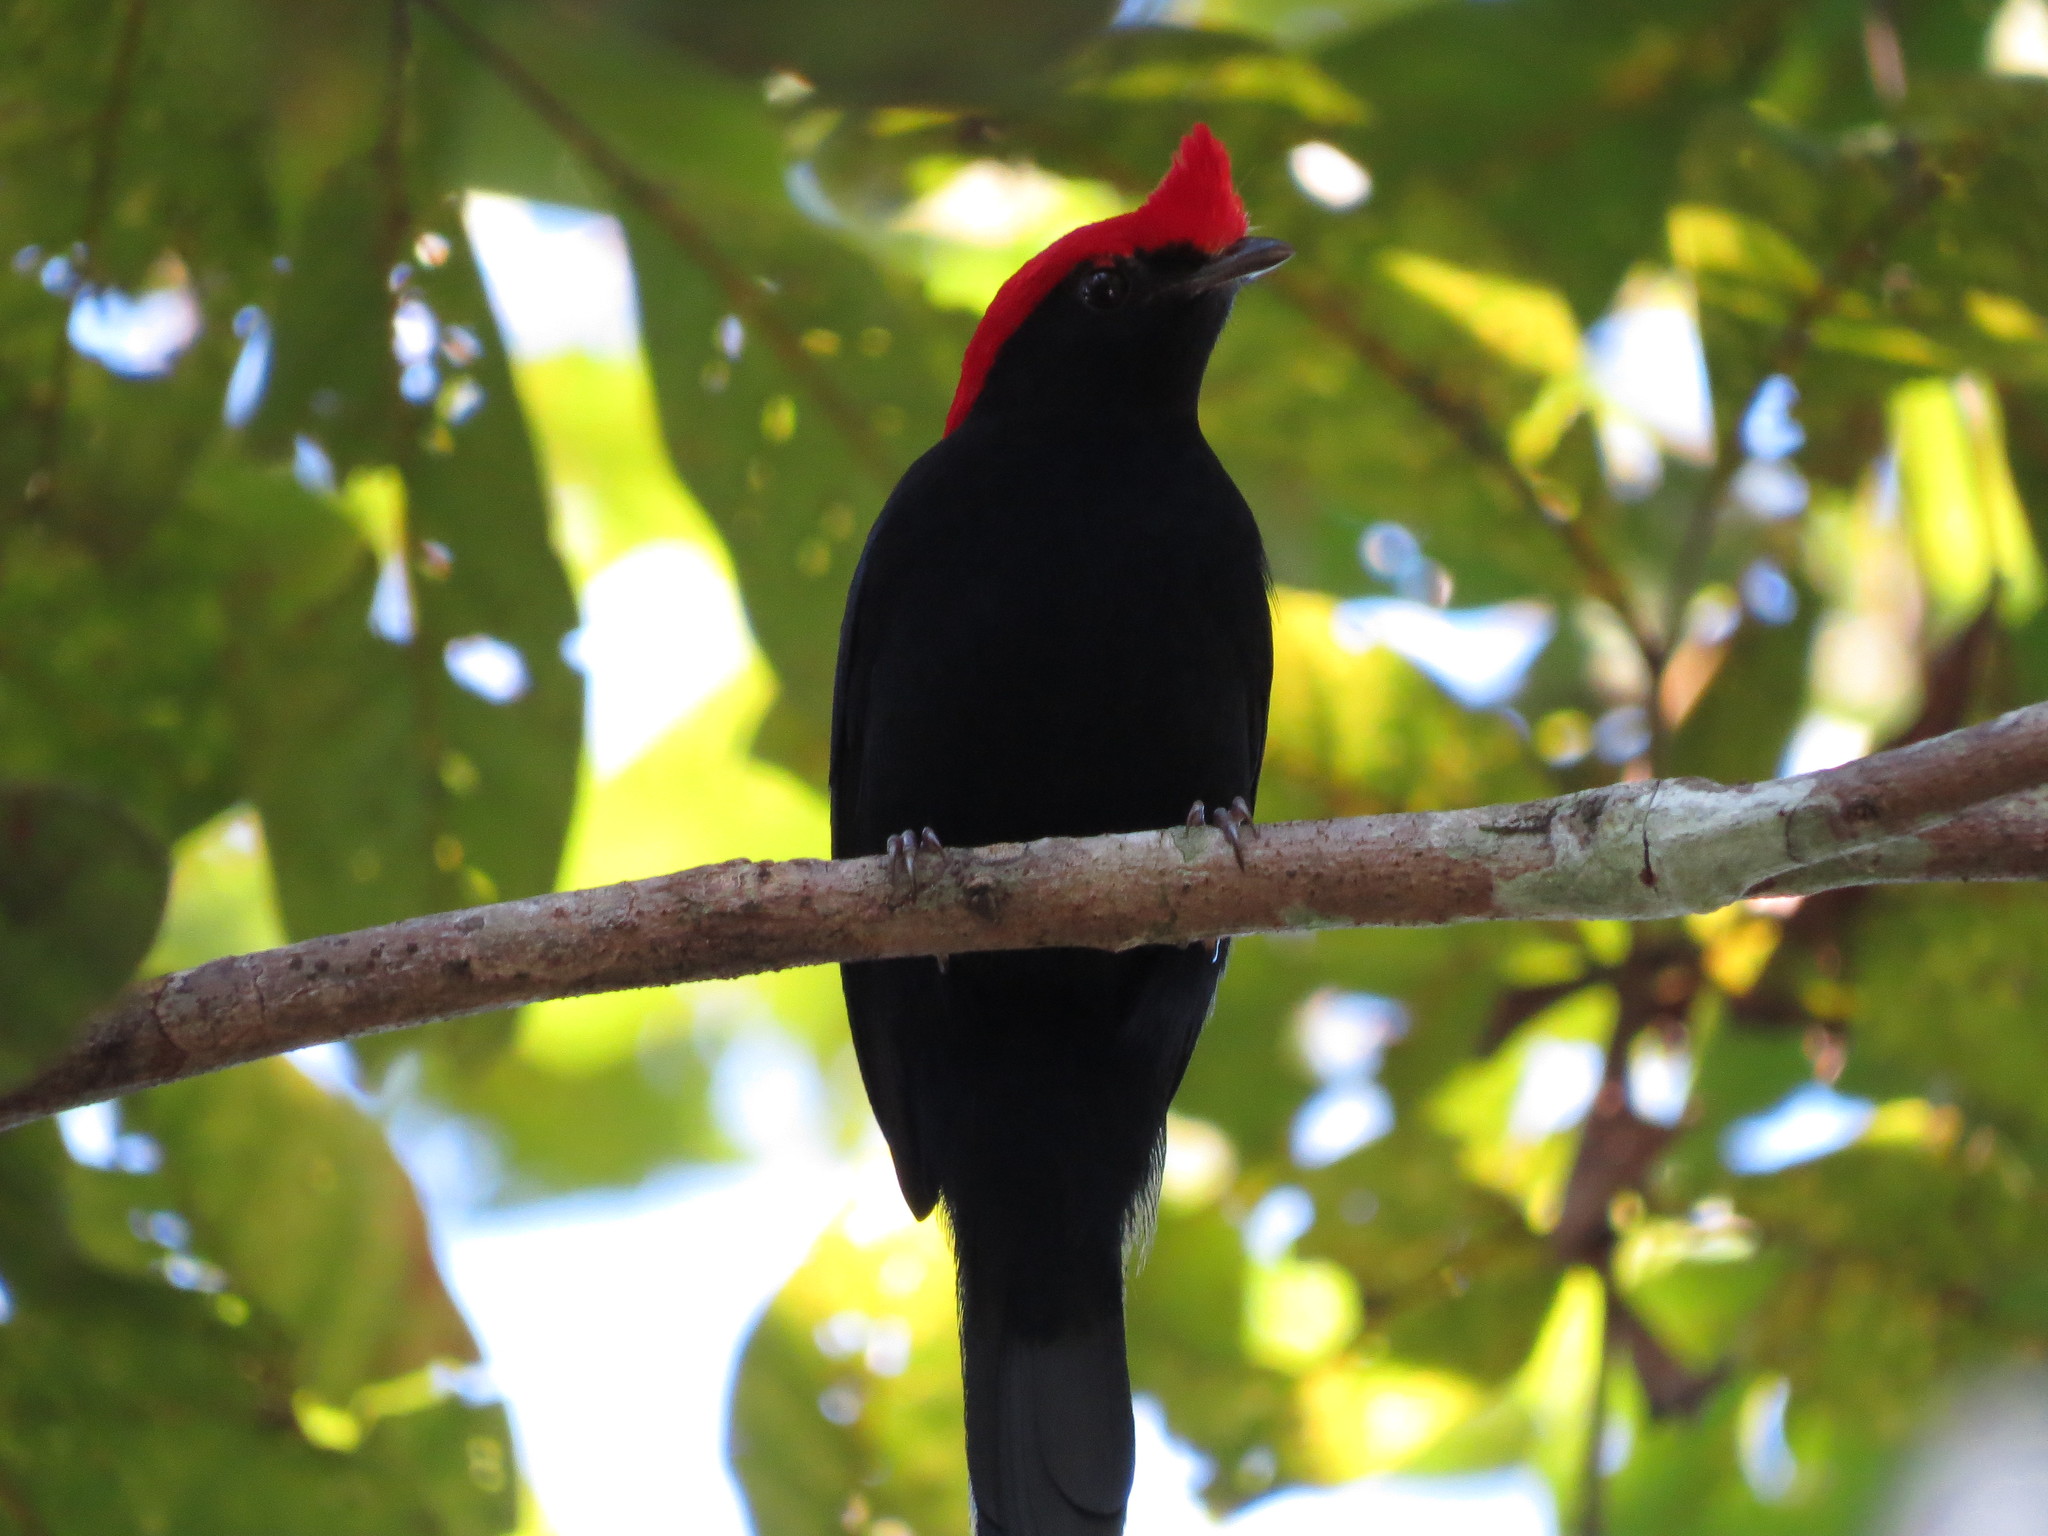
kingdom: Animalia
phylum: Chordata
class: Aves
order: Passeriformes
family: Pipridae
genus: Antilophia
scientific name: Antilophia galeata
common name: Helmeted manakin
